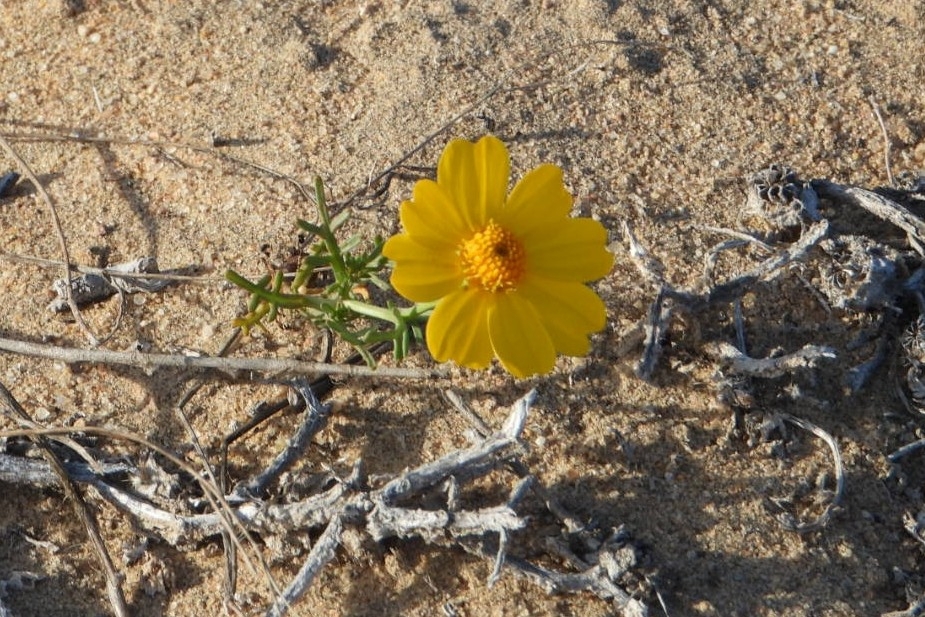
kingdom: Plantae
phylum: Tracheophyta
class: Magnoliopsida
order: Asterales
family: Asteraceae
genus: Boeberastrum
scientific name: Boeberastrum anthemidifolium
